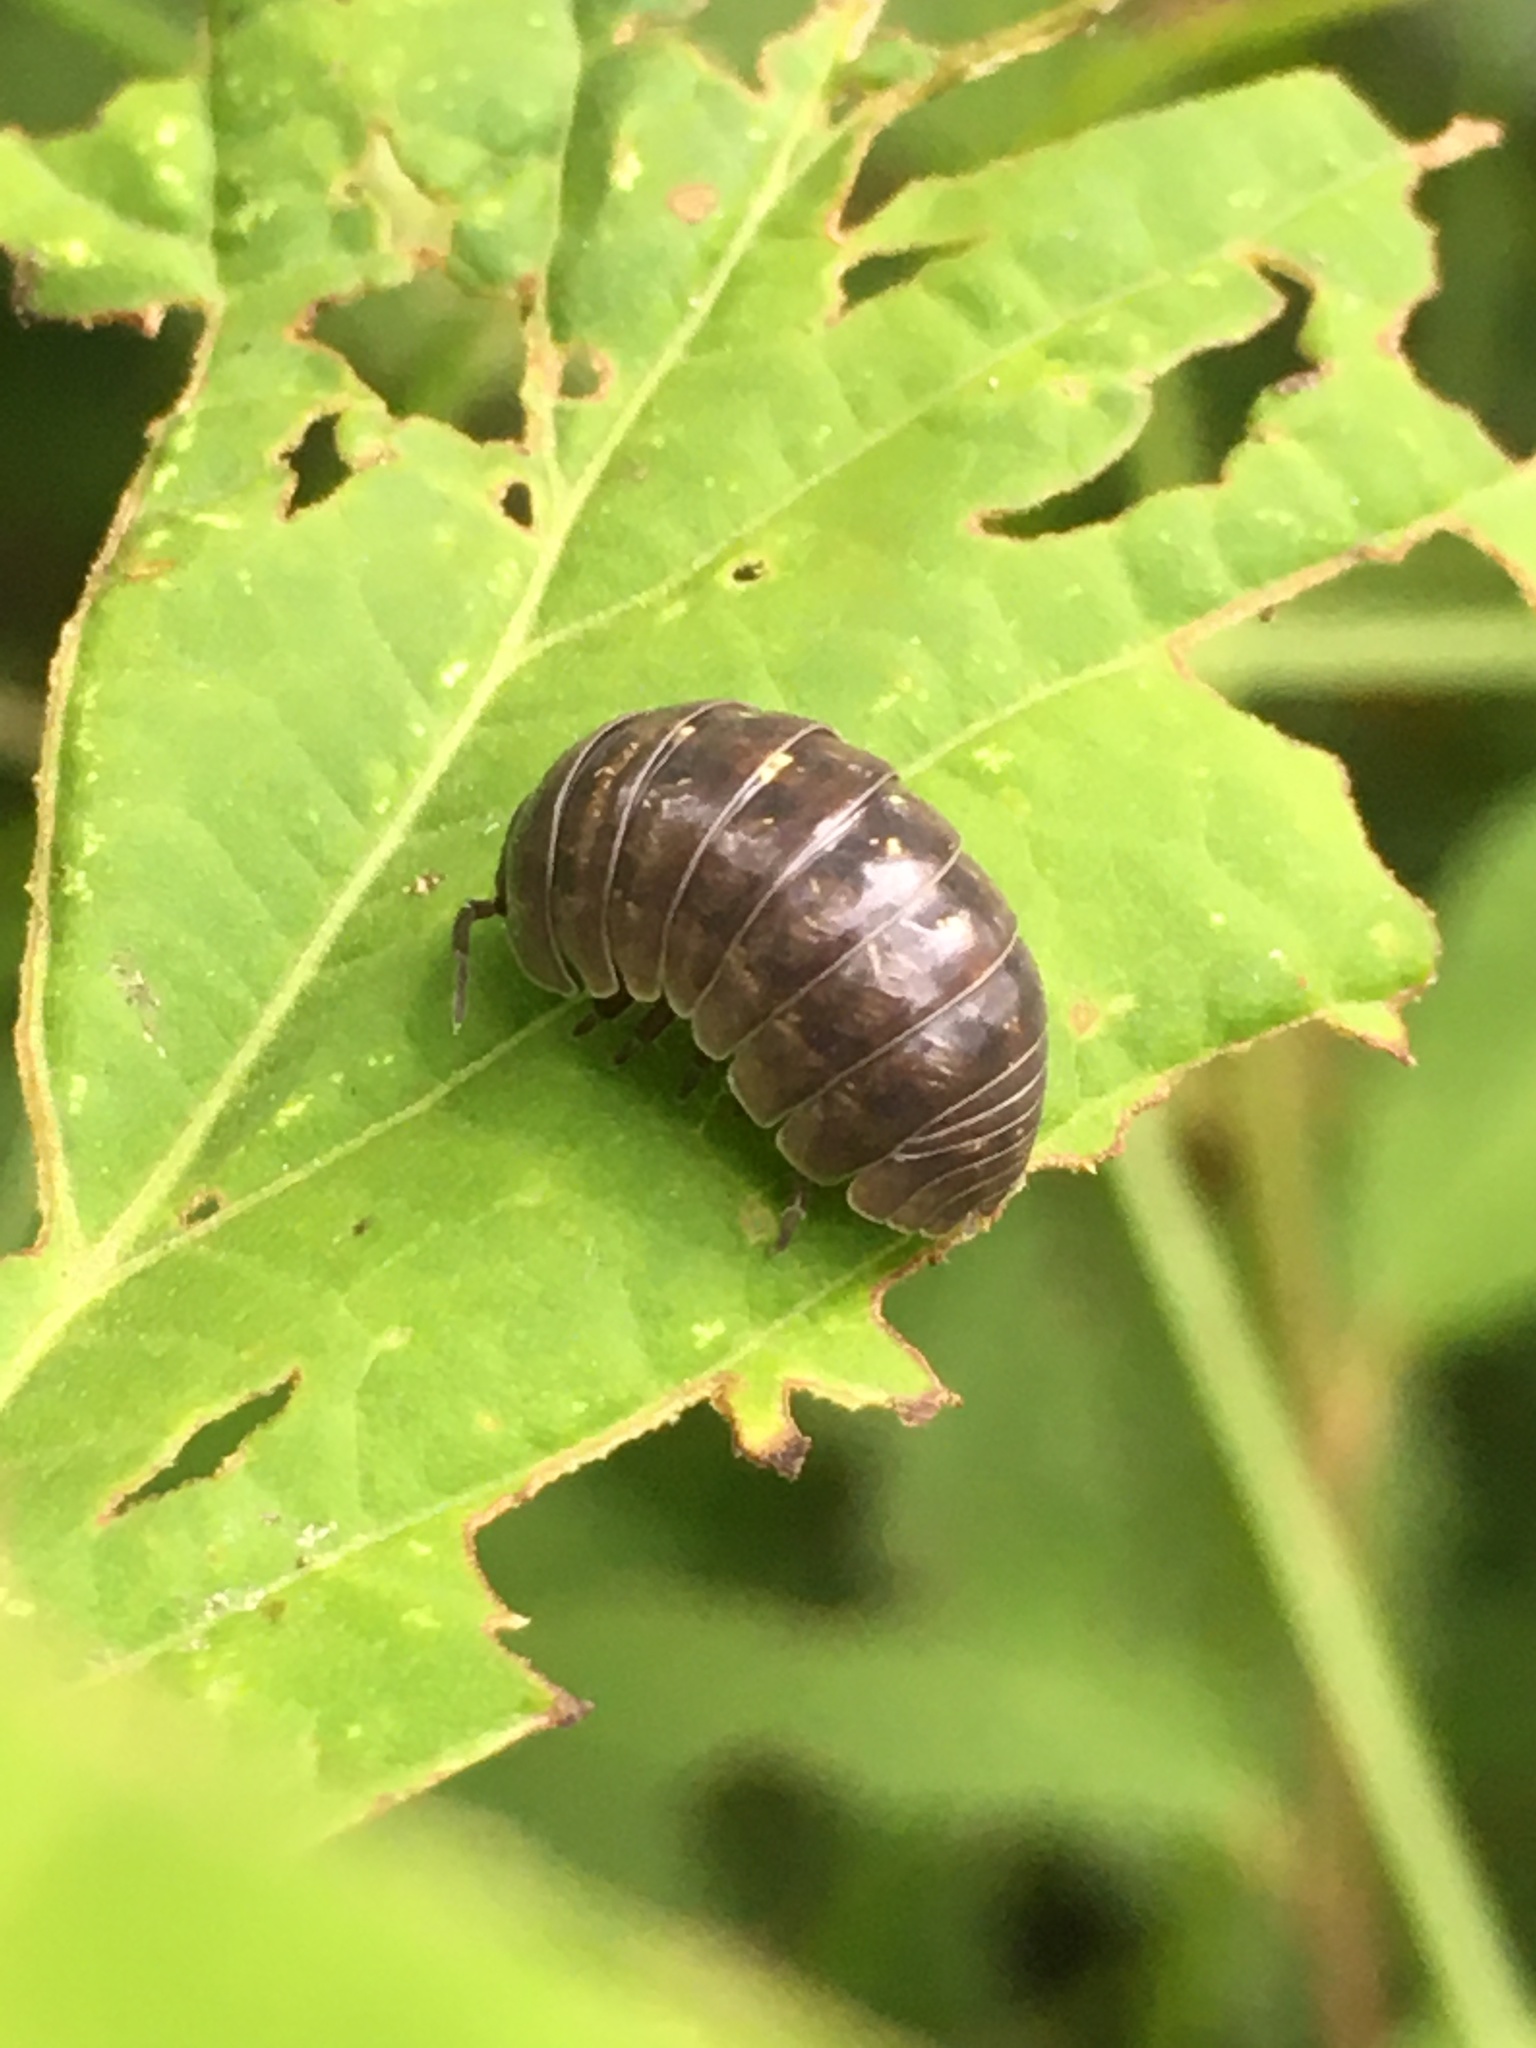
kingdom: Animalia
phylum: Arthropoda
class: Malacostraca
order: Isopoda
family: Armadillidiidae
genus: Armadillidium
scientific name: Armadillidium vulgare
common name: Common pill woodlouse
